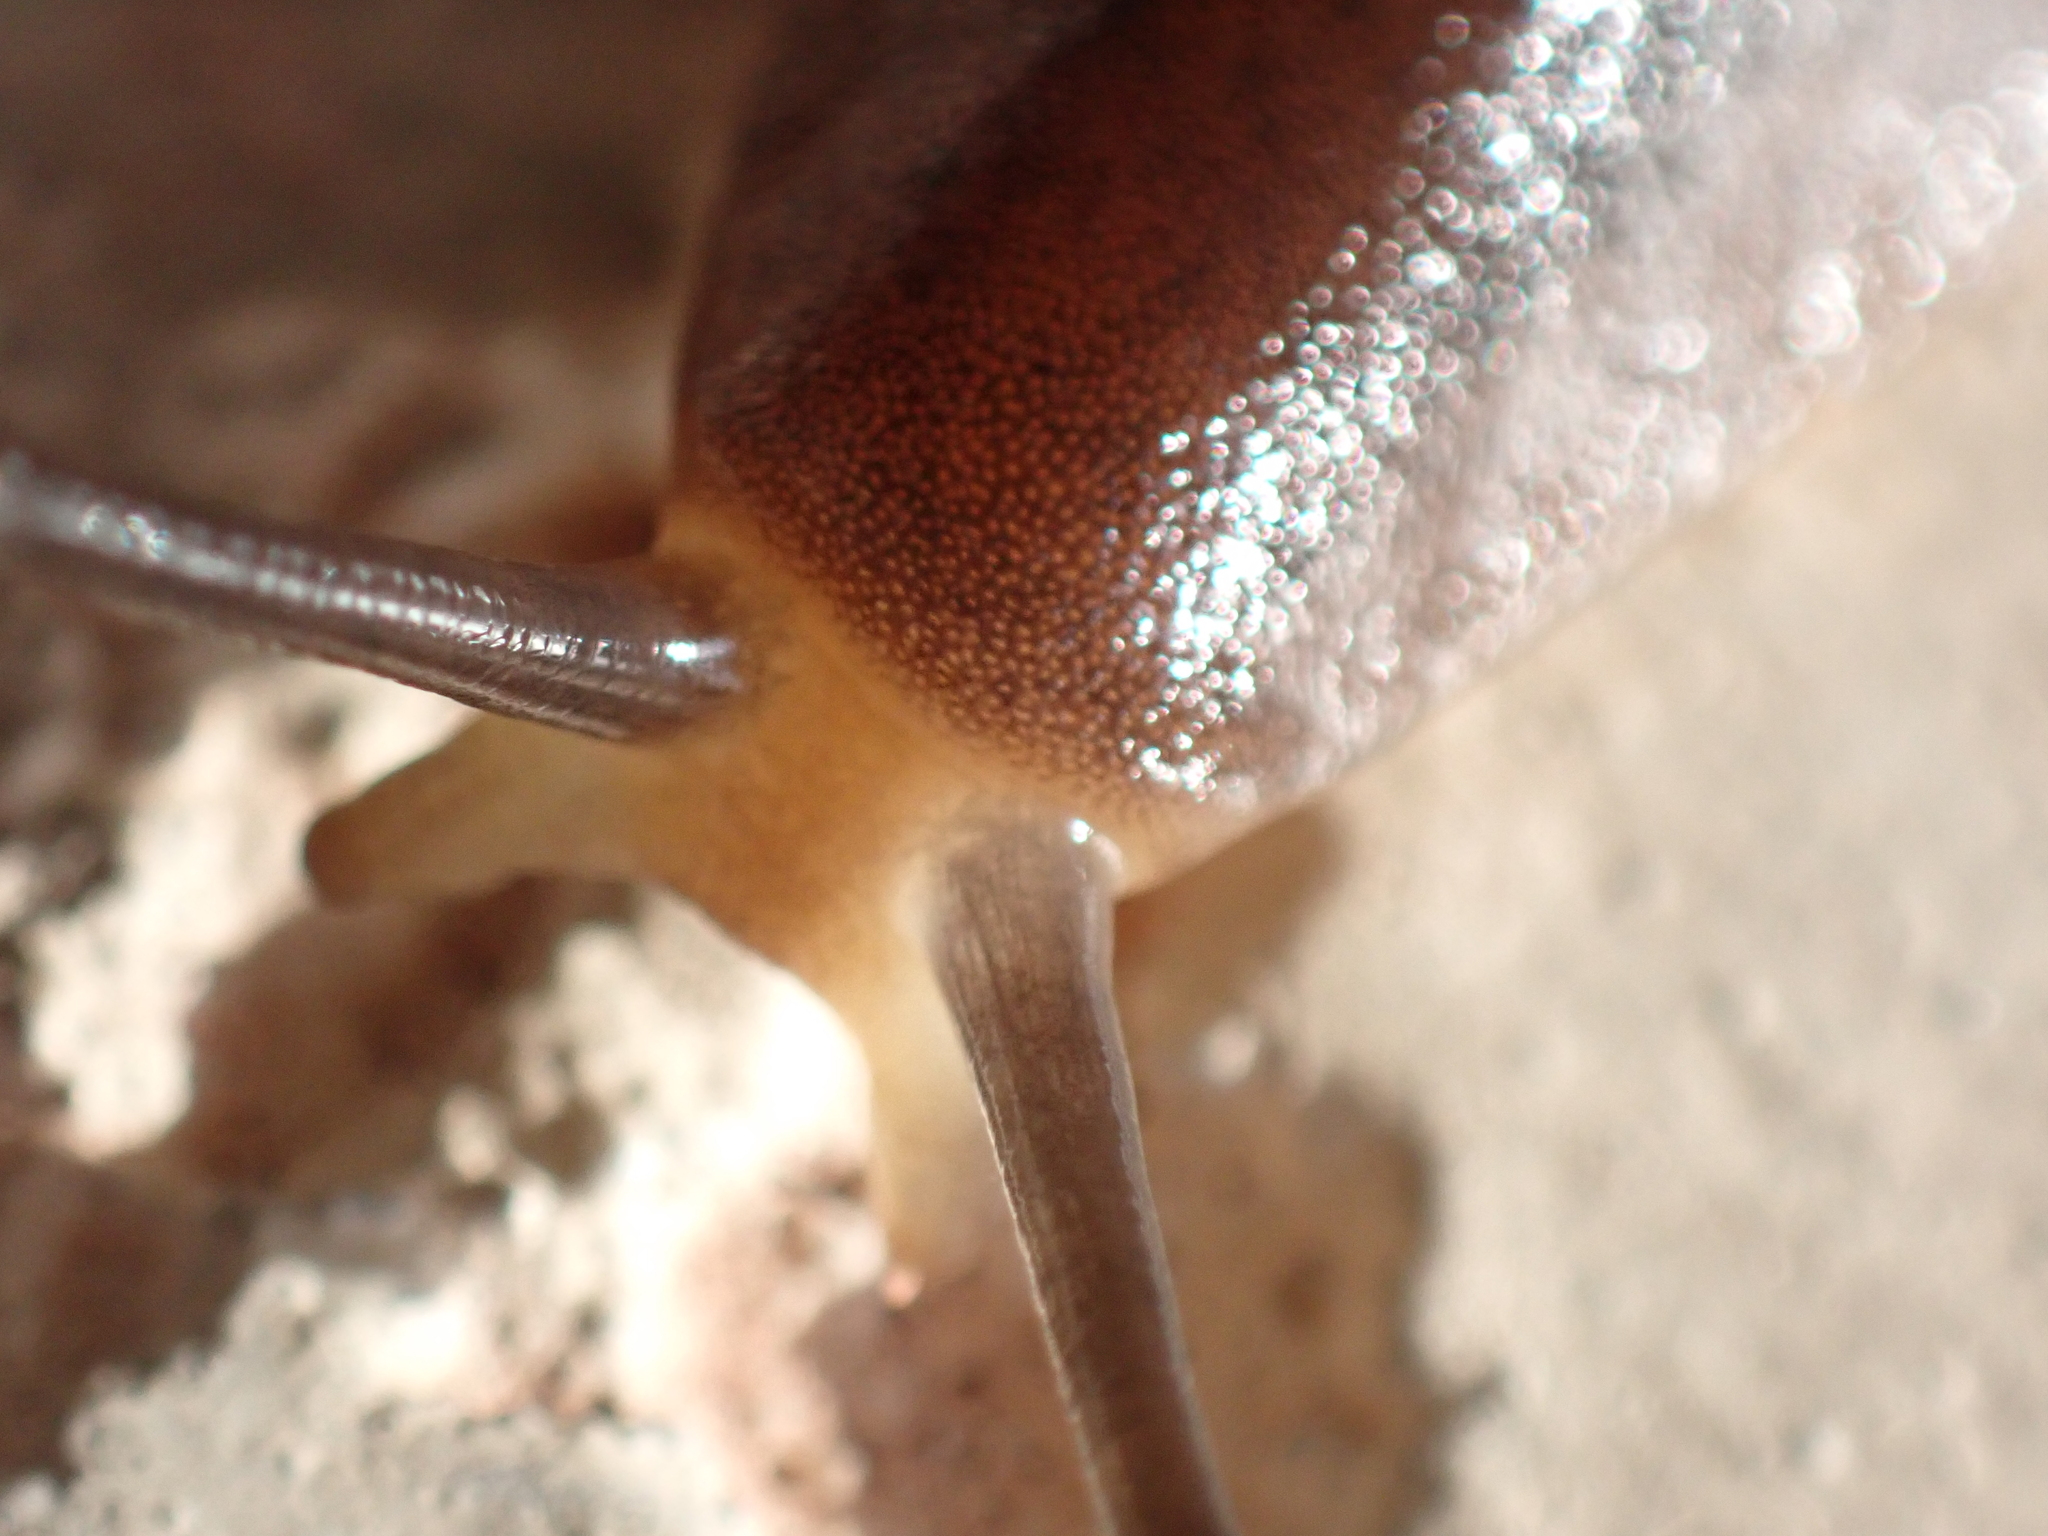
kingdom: Animalia
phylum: Mollusca
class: Gastropoda
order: Systellommatophora
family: Veronicellidae
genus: Leidyula
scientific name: Leidyula floridana
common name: Florida leatherleaf
